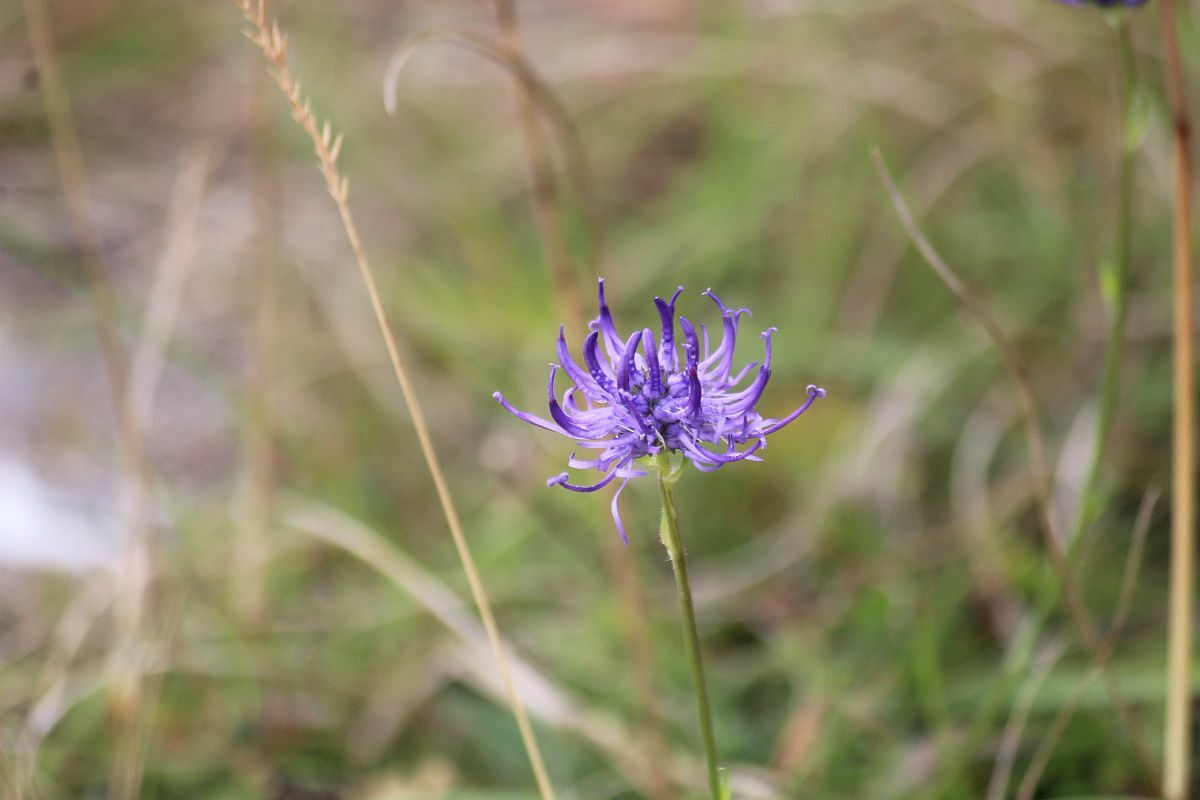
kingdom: Plantae
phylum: Tracheophyta
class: Magnoliopsida
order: Asterales
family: Campanulaceae
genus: Phyteuma
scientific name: Phyteuma orbiculare
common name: Round-headed rampion
